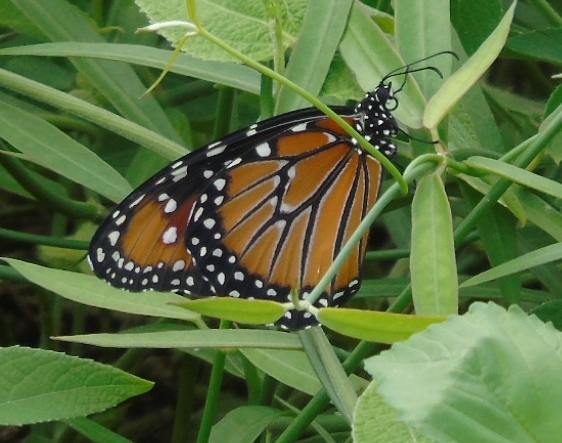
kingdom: Animalia
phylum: Arthropoda
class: Insecta
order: Lepidoptera
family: Nymphalidae
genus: Danaus
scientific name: Danaus gilippus
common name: Queen
